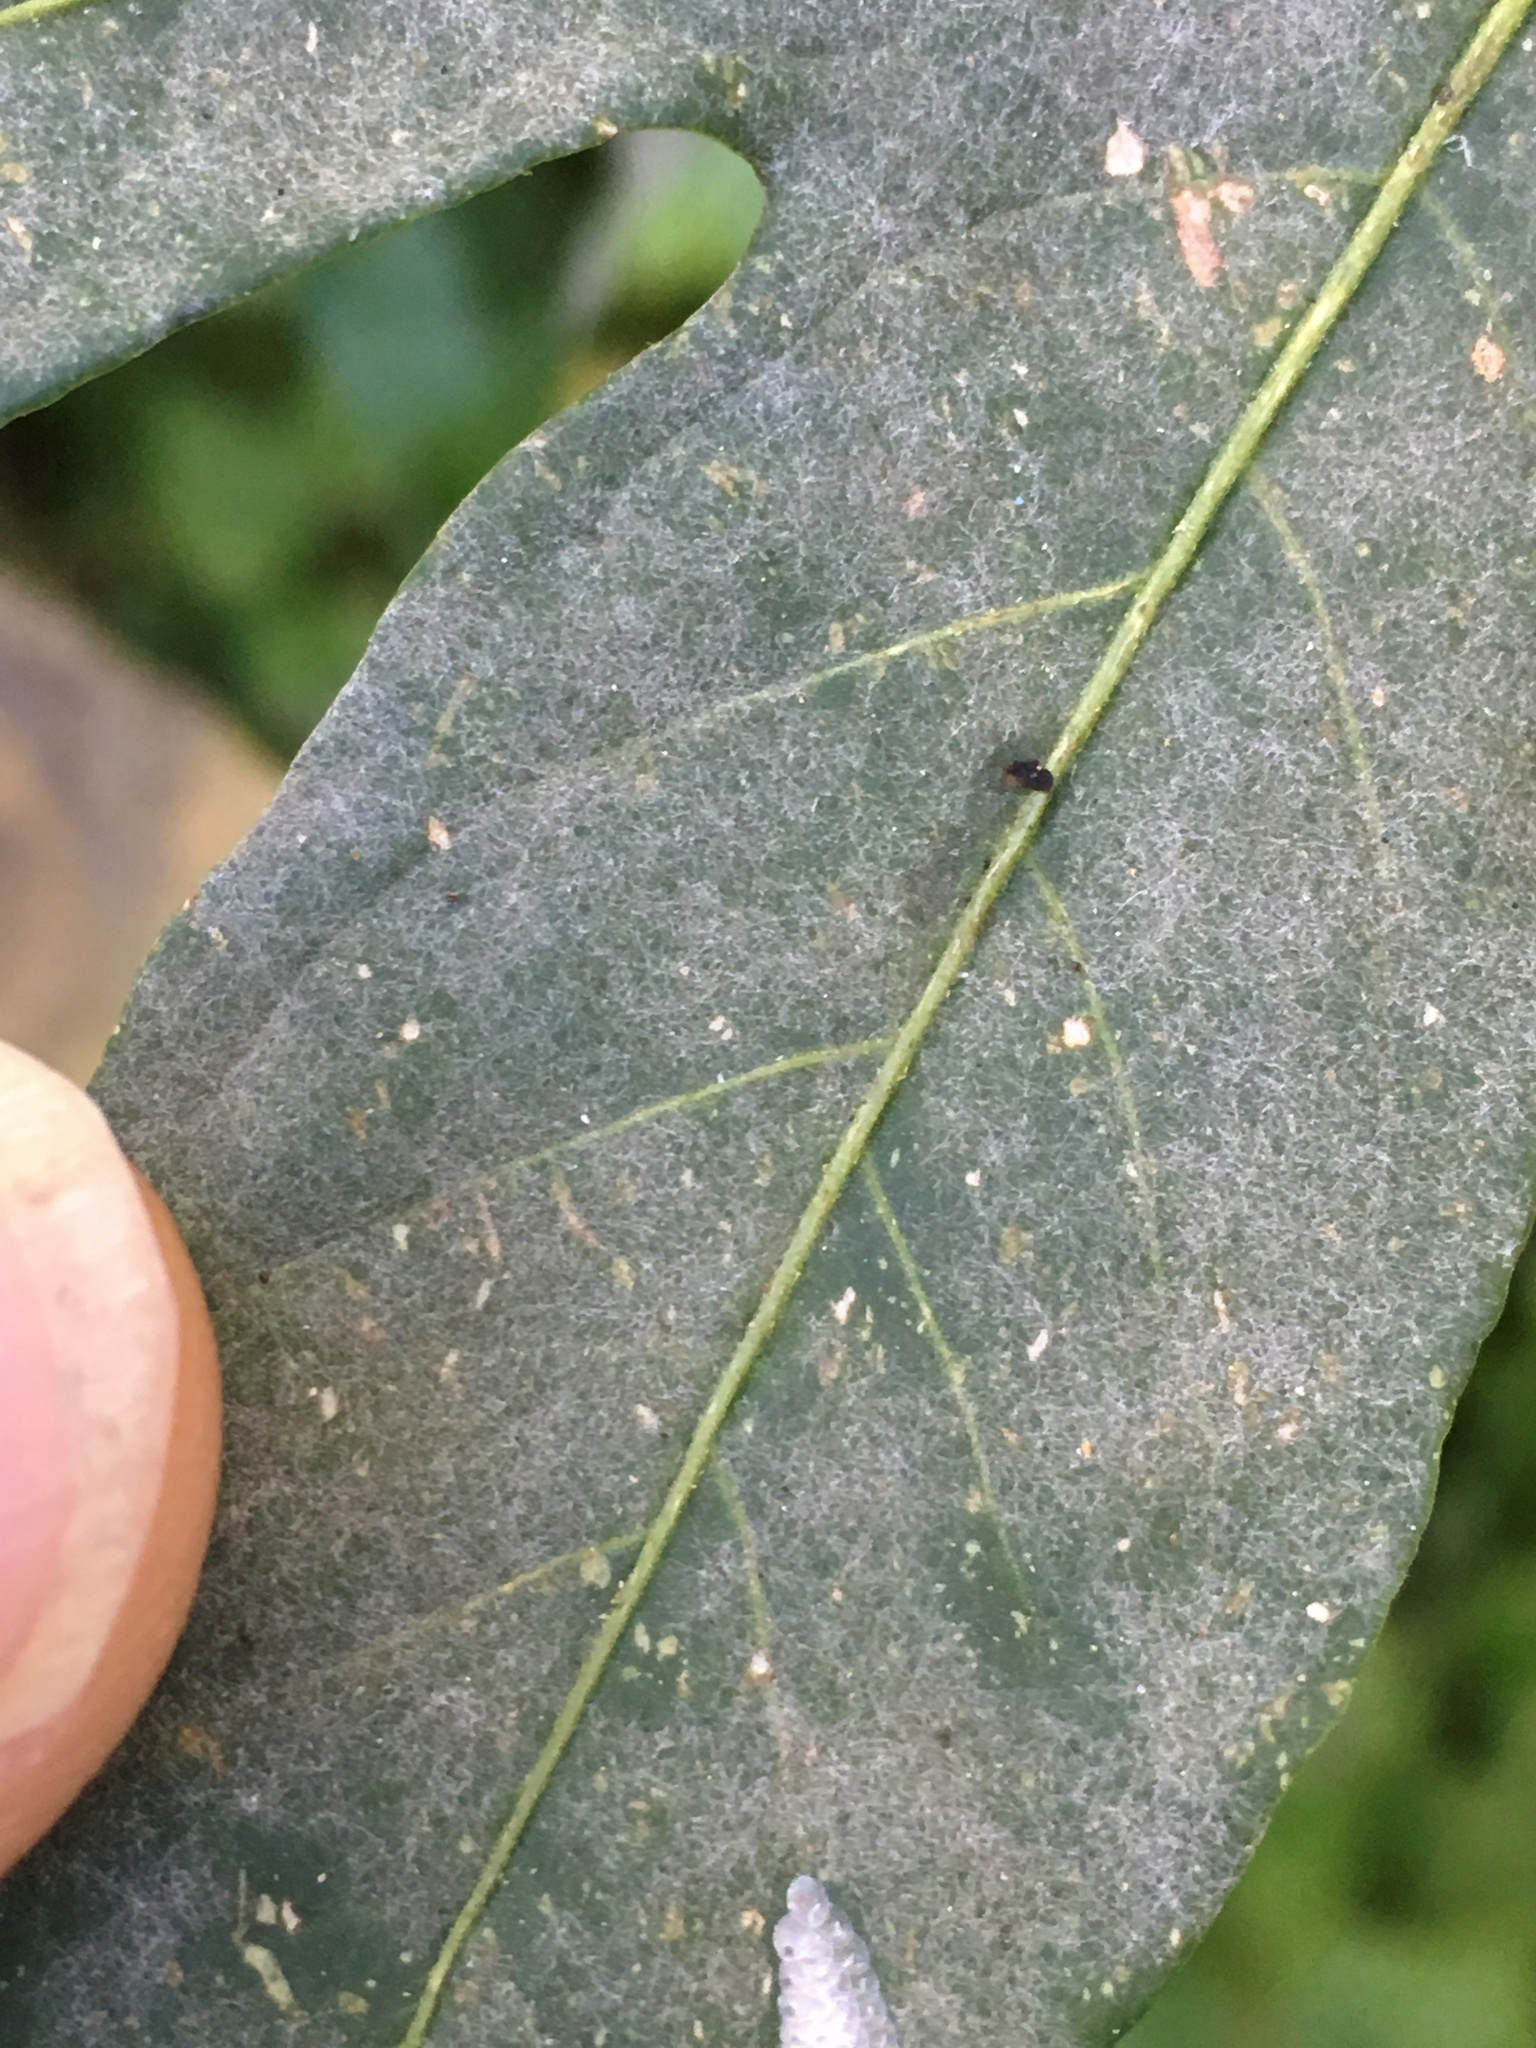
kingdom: Fungi
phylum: Ascomycota
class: Leotiomycetes
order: Helotiales
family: Erysiphaceae
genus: Golovinomyces
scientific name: Golovinomyces longipes
